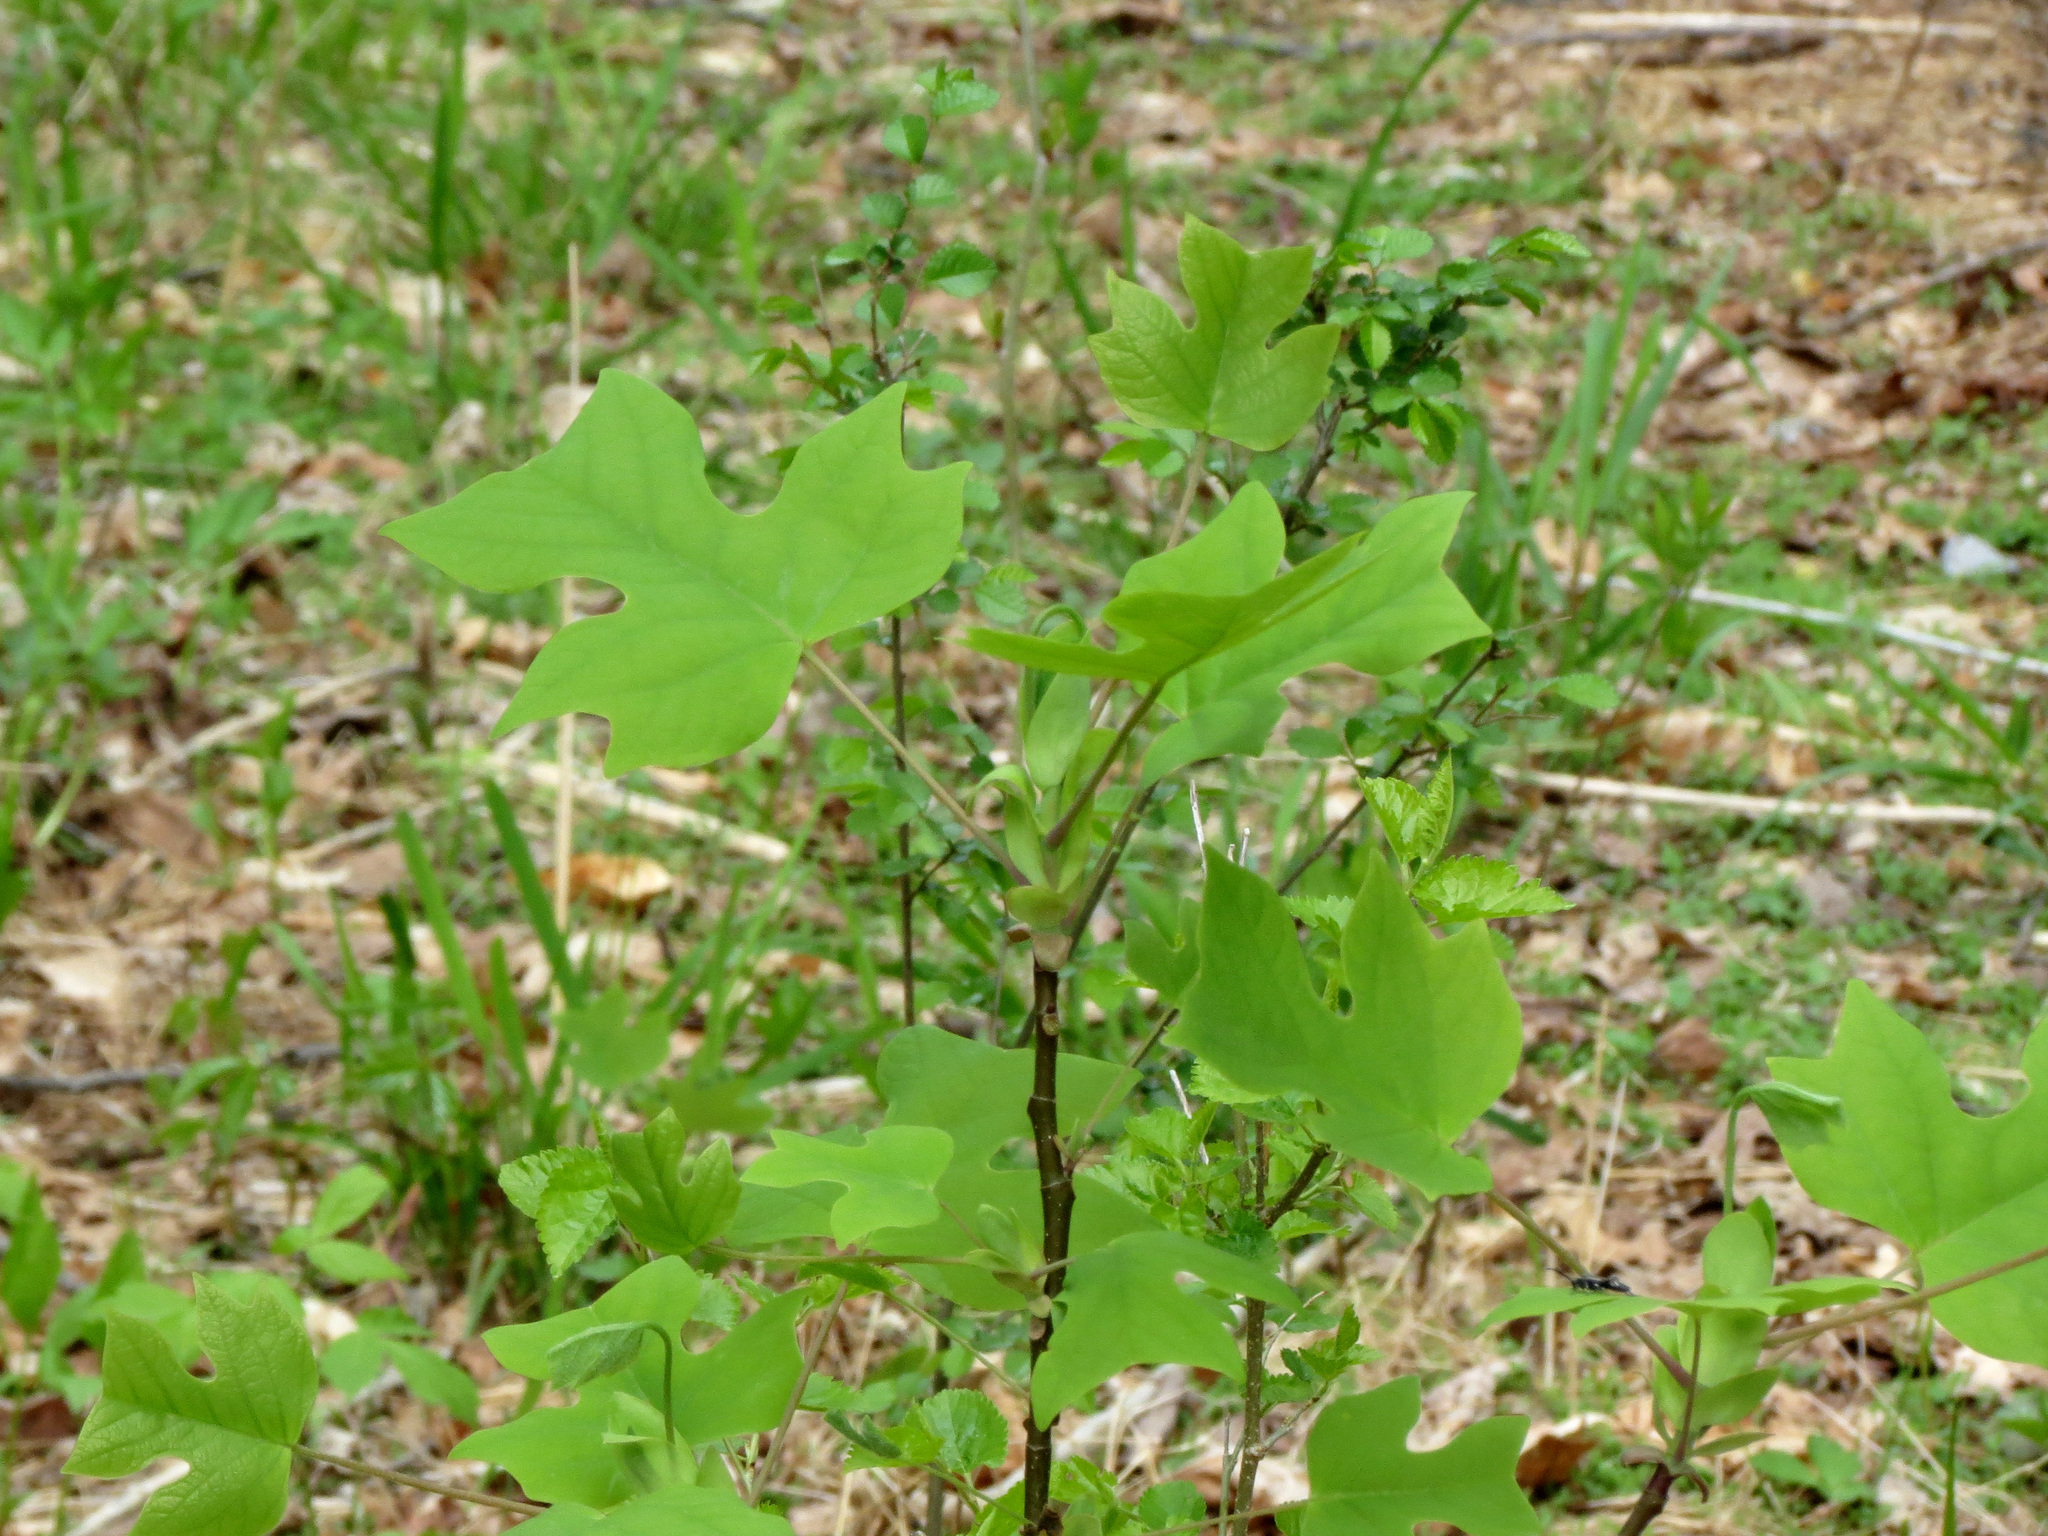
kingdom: Plantae
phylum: Tracheophyta
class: Magnoliopsida
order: Magnoliales
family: Magnoliaceae
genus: Liriodendron
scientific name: Liriodendron tulipifera
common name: Tulip tree
